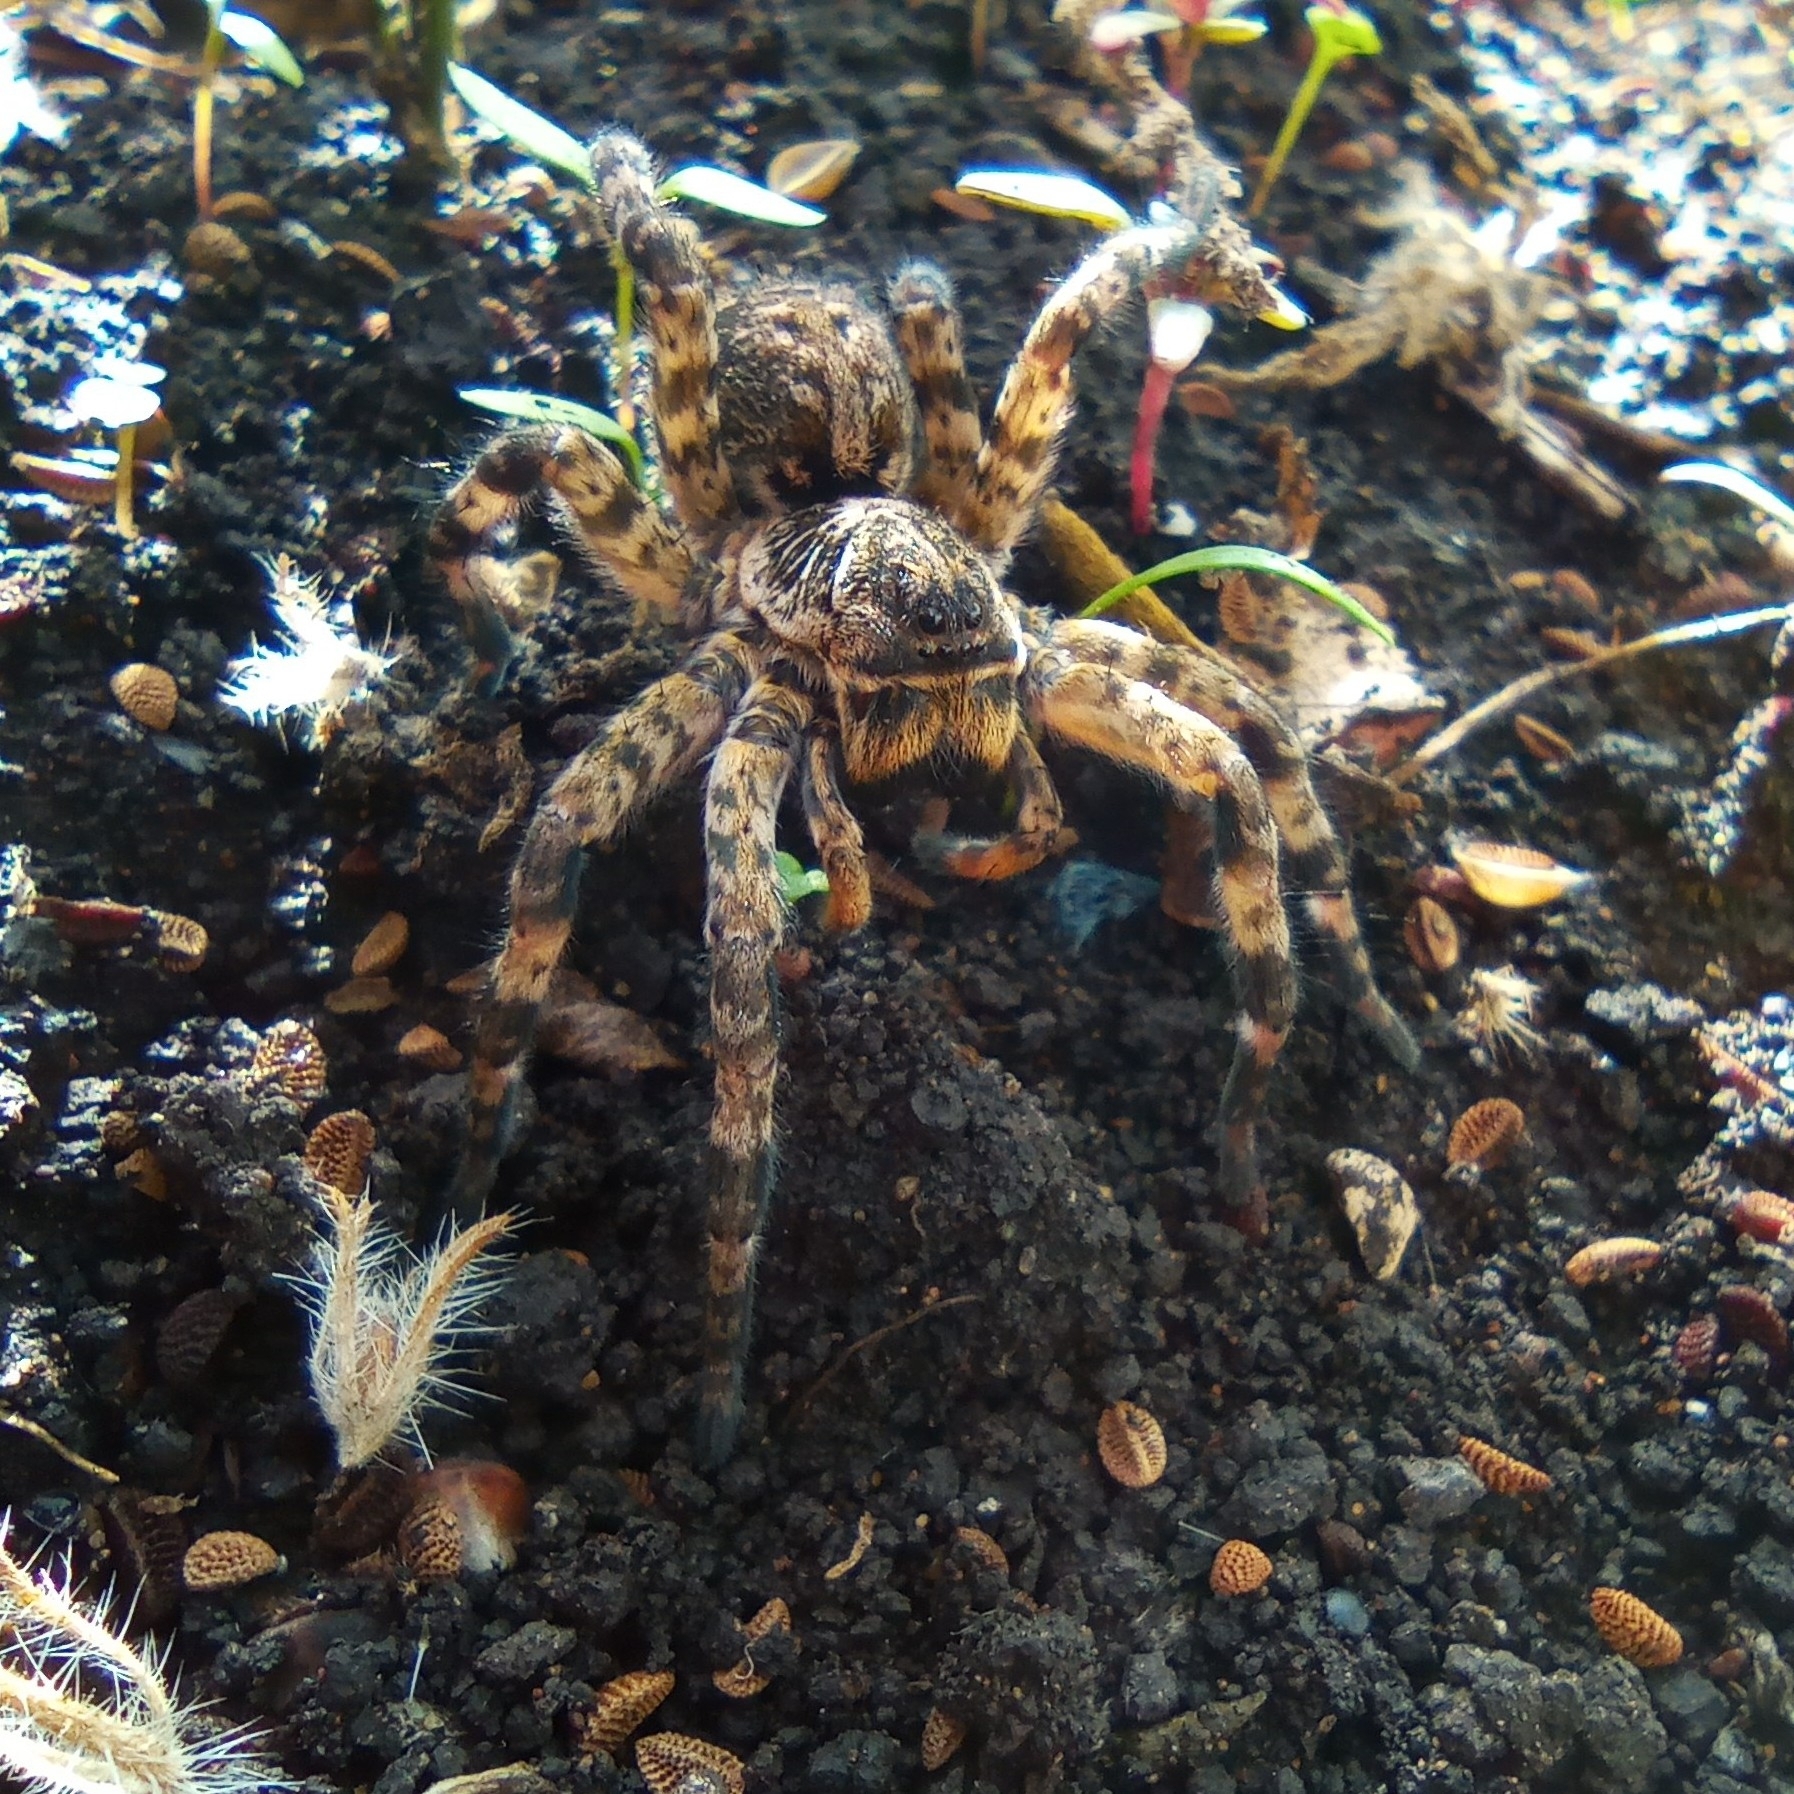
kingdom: Animalia
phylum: Arthropoda
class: Arachnida
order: Araneae
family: Lycosidae
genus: Lycosa
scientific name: Lycosa singoriensis
